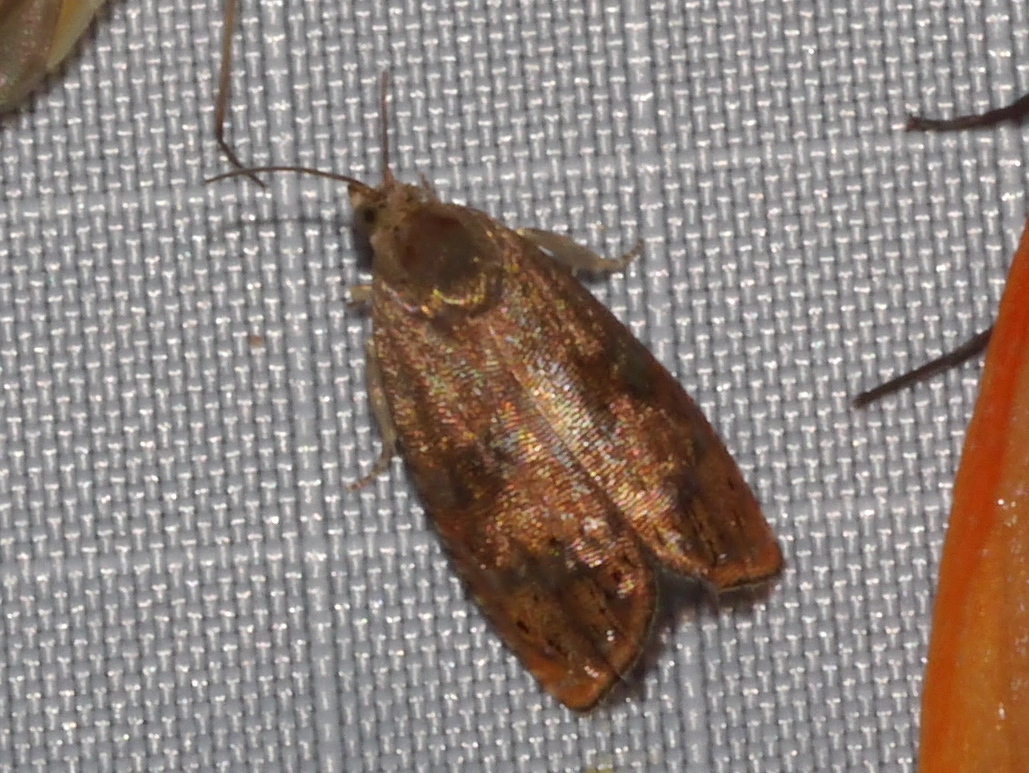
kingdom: Animalia
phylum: Arthropoda
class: Insecta
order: Lepidoptera
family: Tortricidae
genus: Cydia
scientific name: Cydia latiferreana
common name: Filbertworm moth
